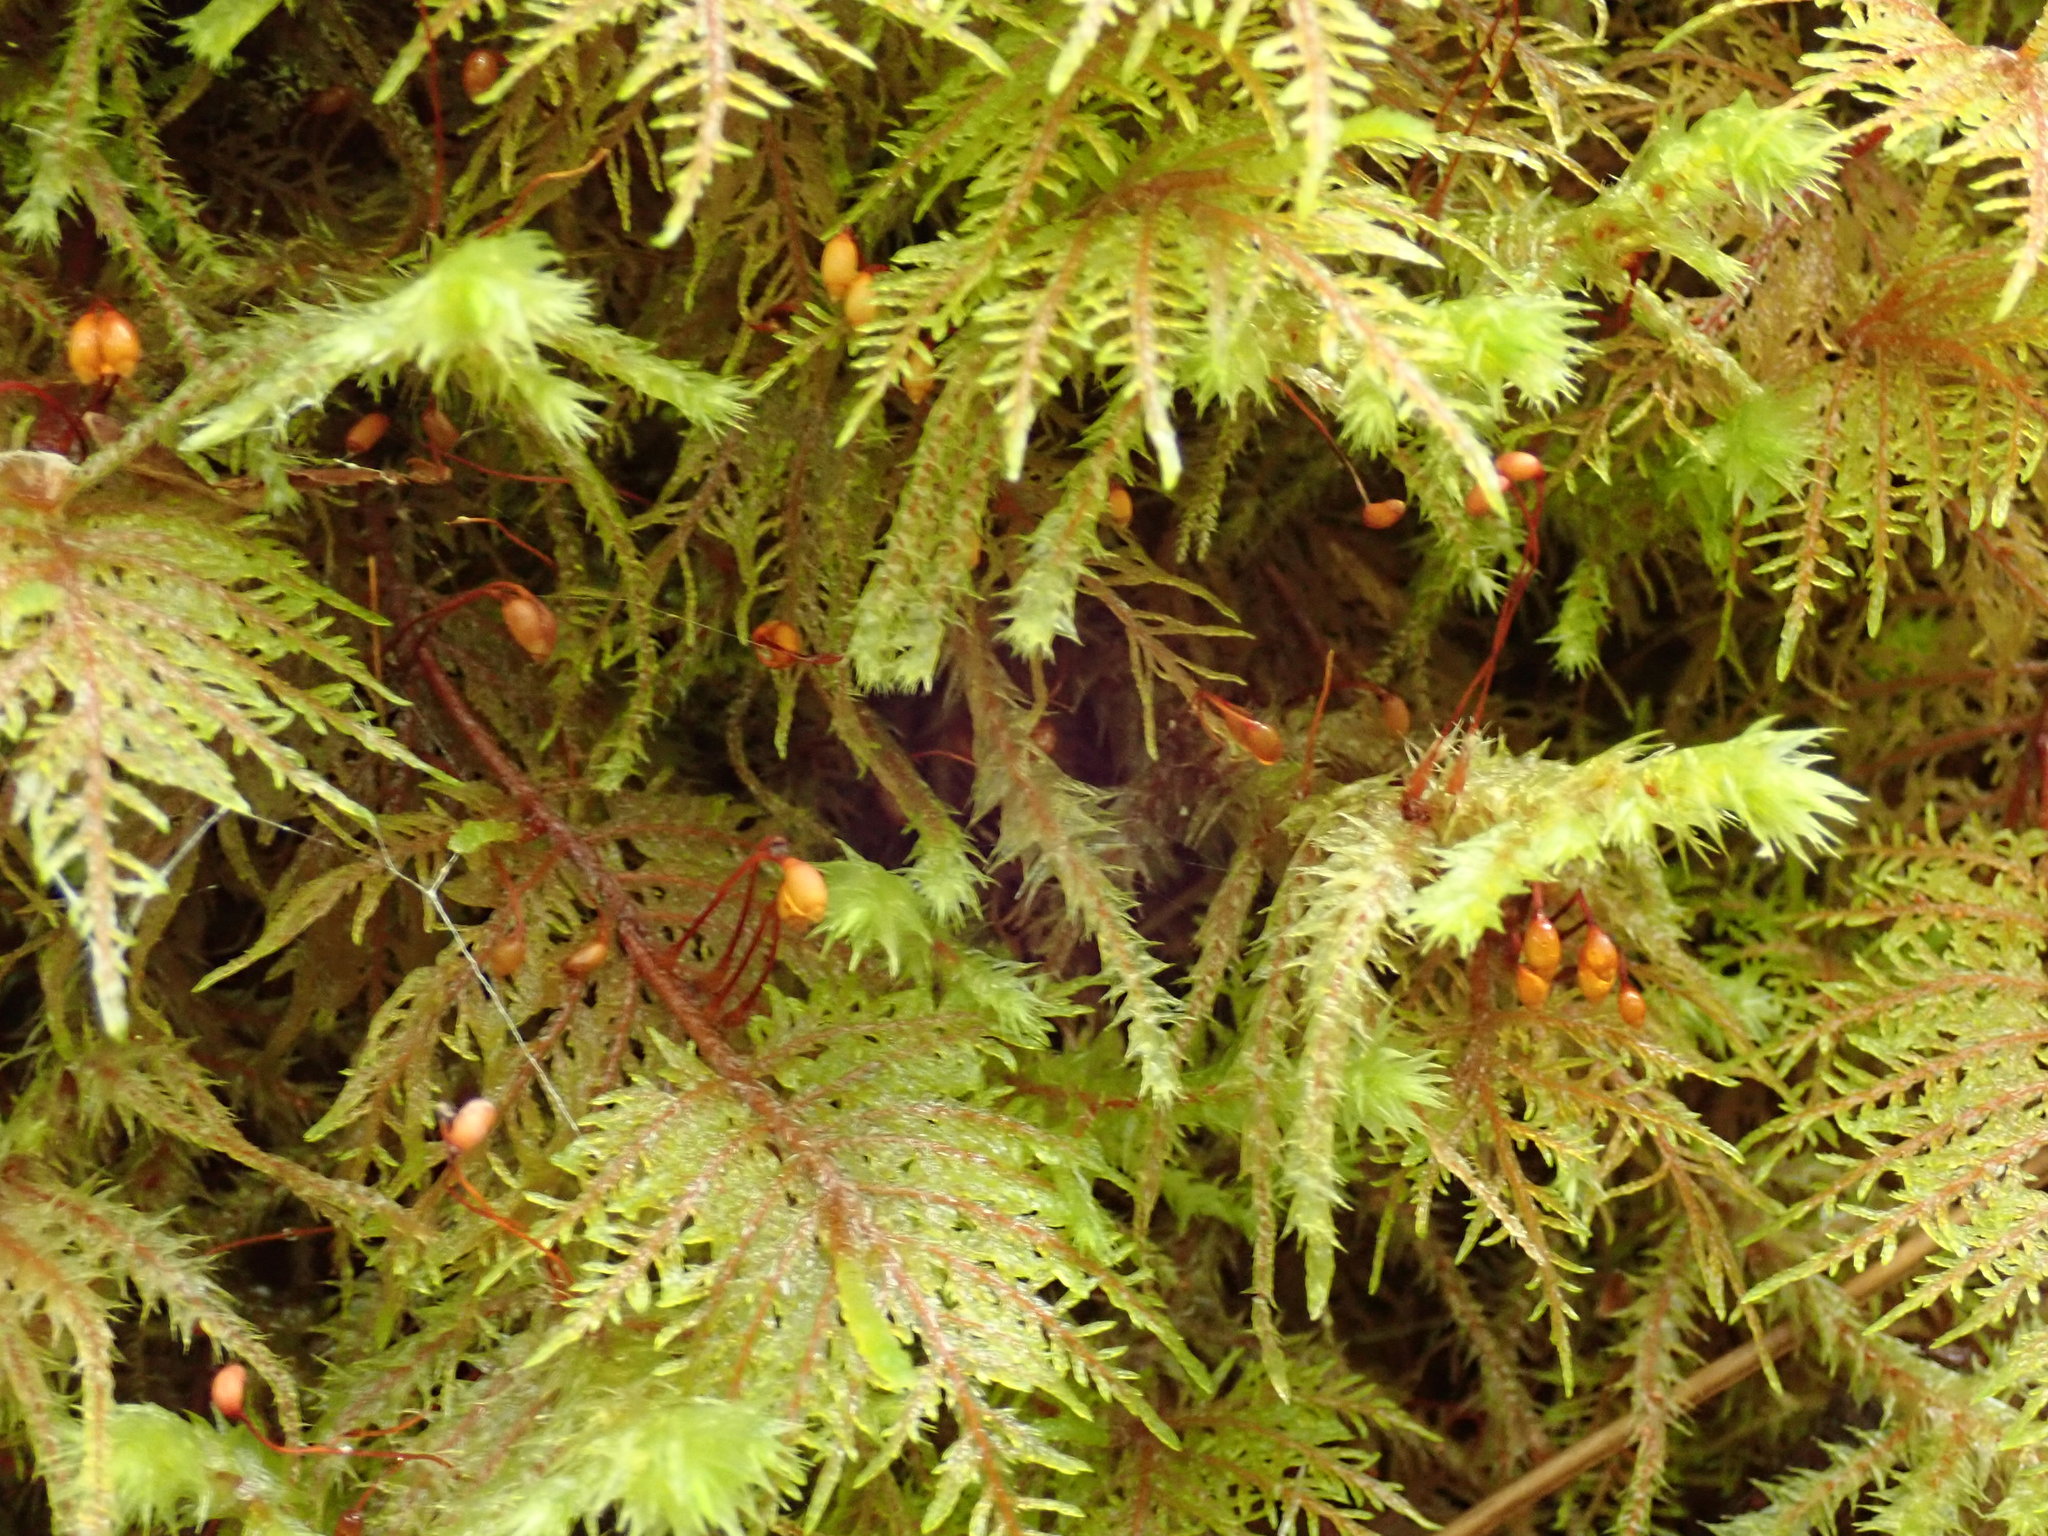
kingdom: Plantae
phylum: Bryophyta
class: Bryopsida
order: Hypnales
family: Hylocomiaceae
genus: Hylocomium
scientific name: Hylocomium splendens
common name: Stairstep moss
